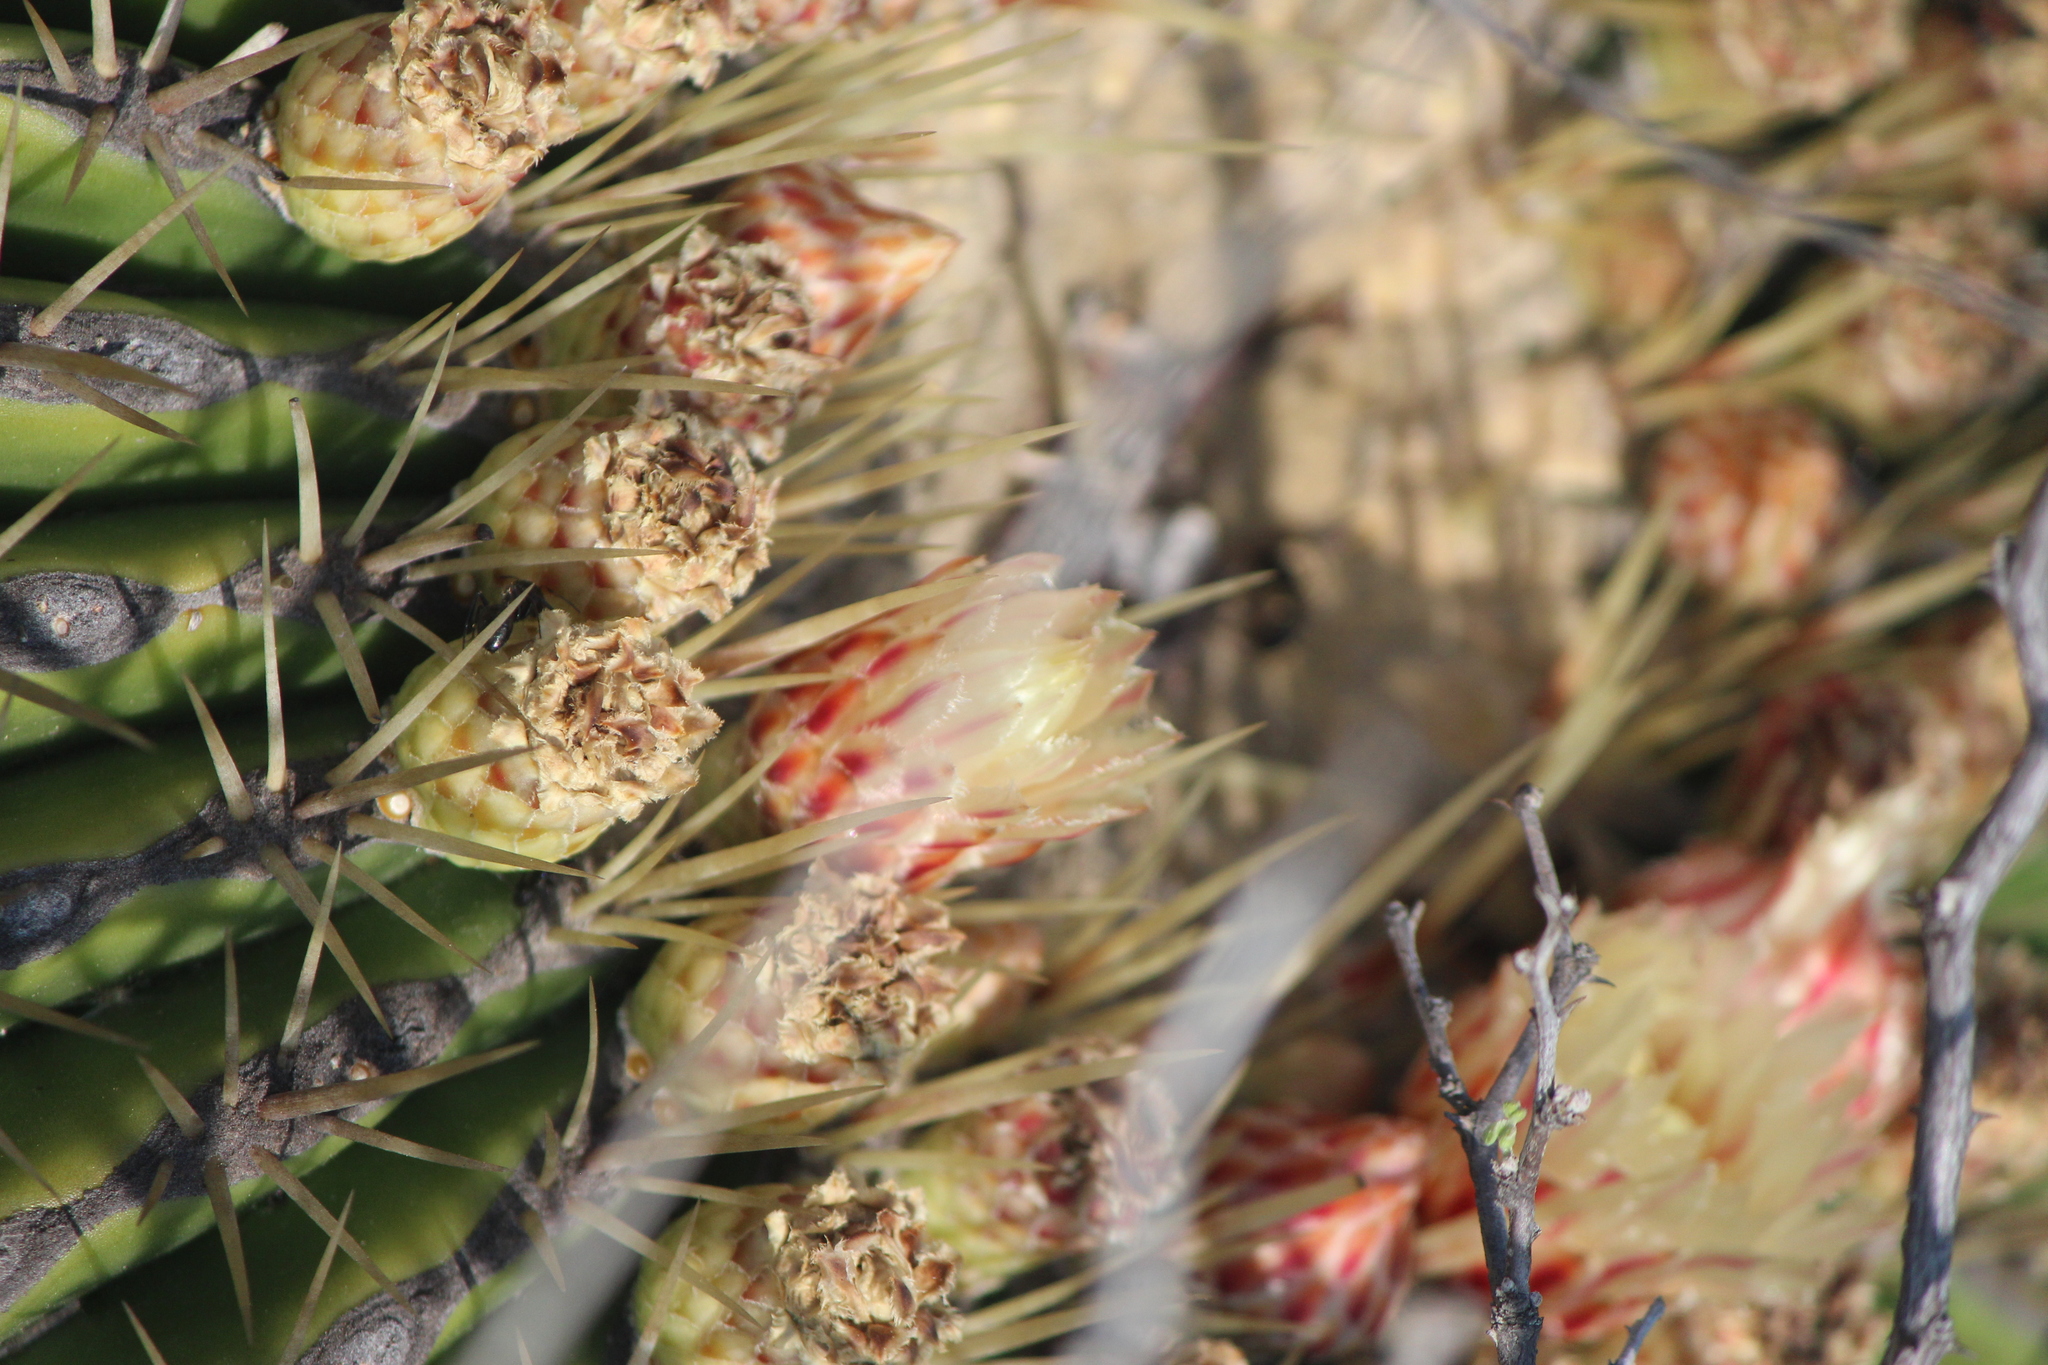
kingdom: Plantae
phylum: Tracheophyta
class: Magnoliopsida
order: Caryophyllales
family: Cactaceae
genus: Bisnaga
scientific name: Bisnaga histrix
